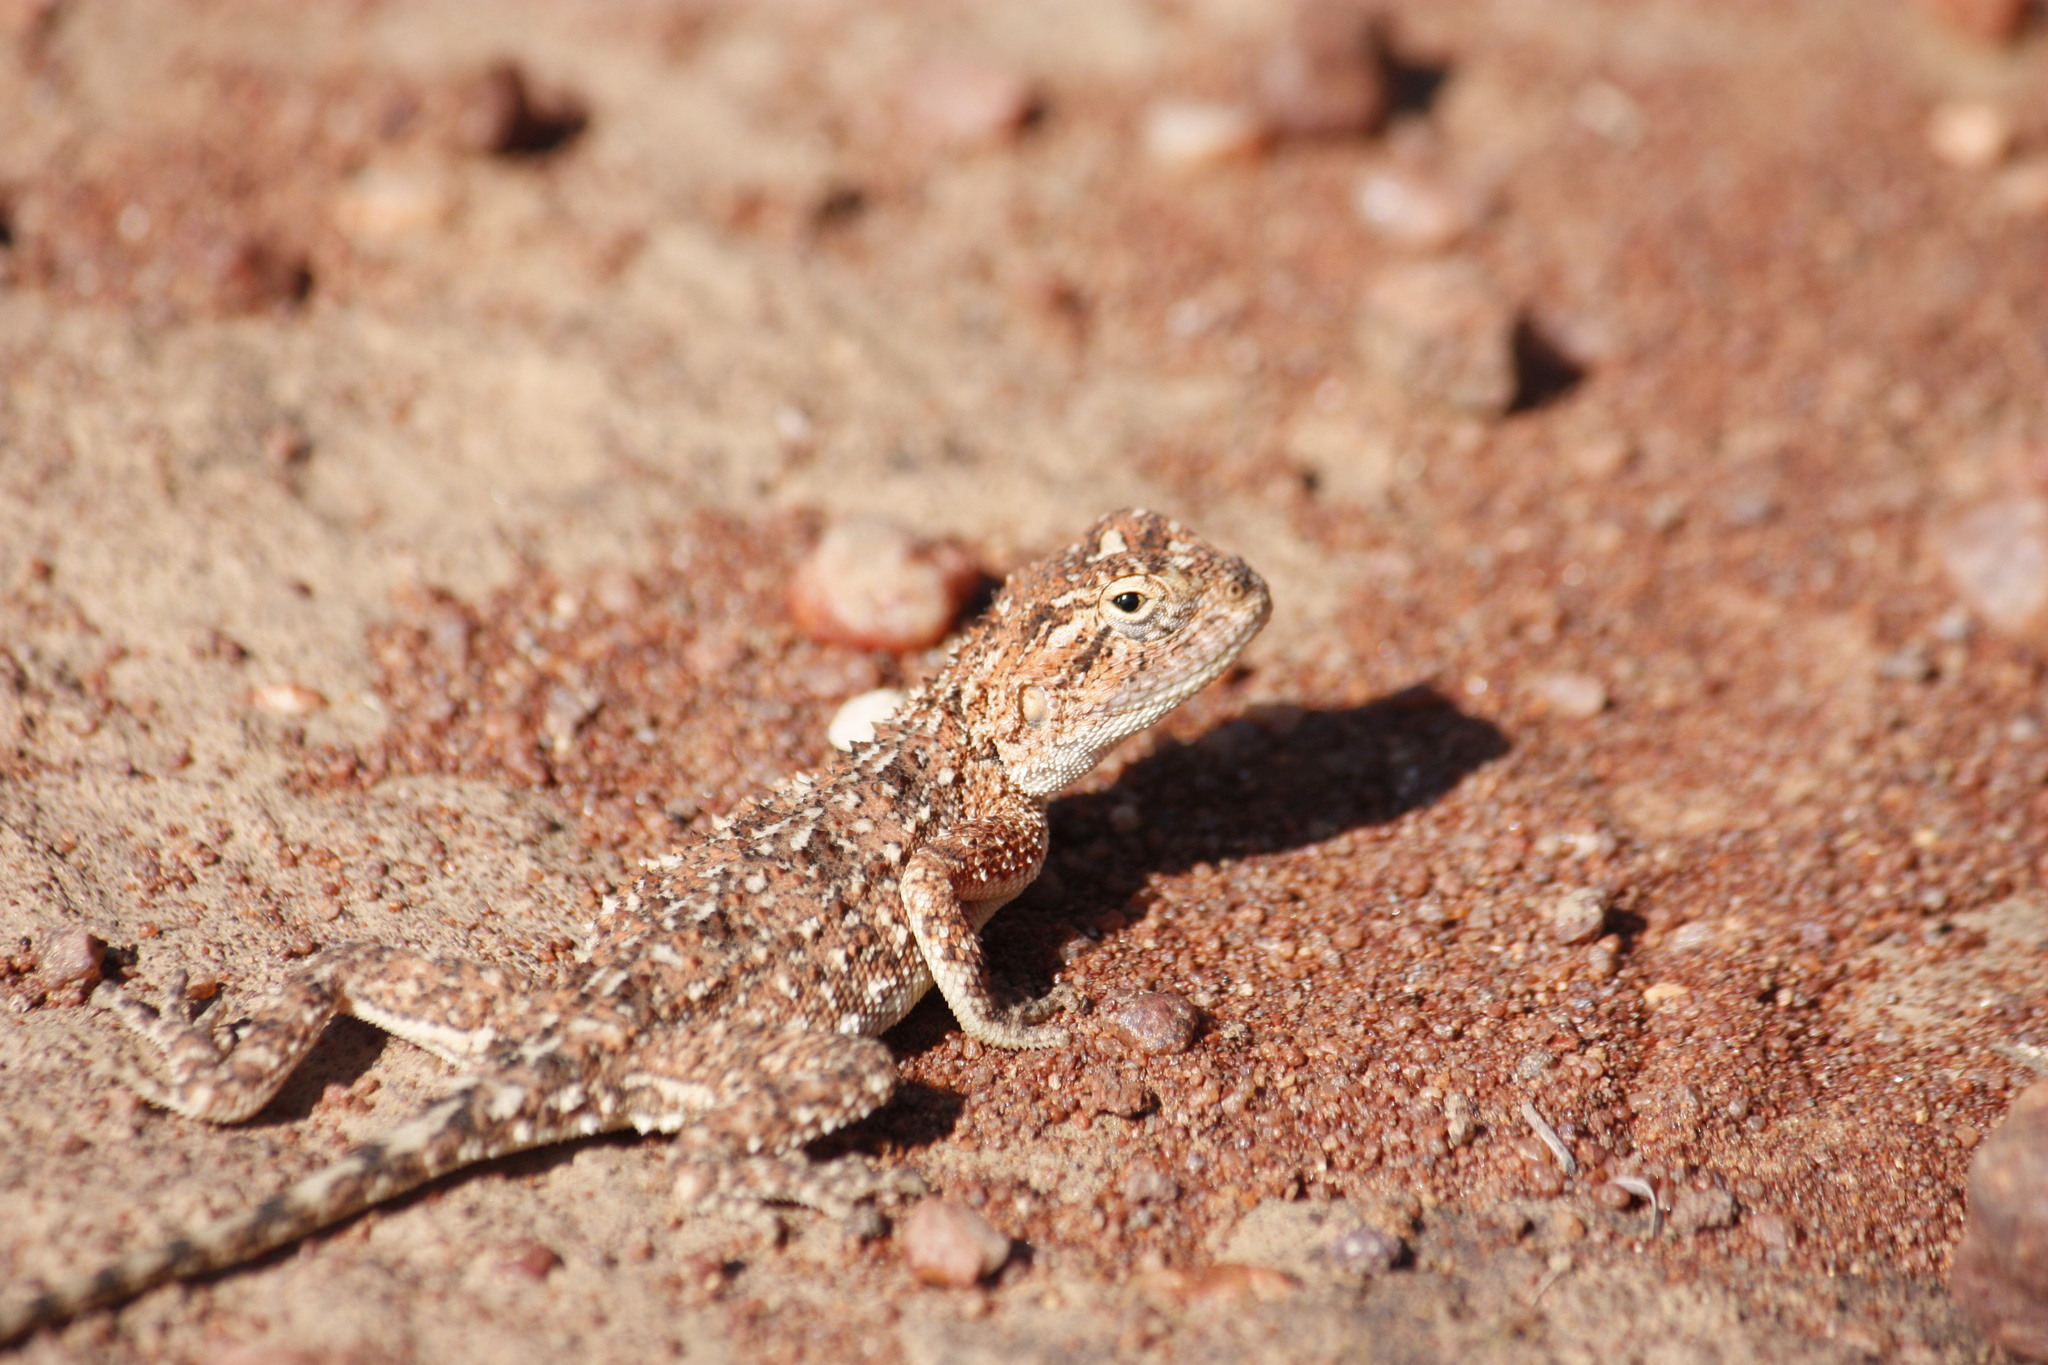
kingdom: Animalia
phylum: Chordata
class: Squamata
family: Agamidae
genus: Agama
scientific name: Agama aculeata
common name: Common ground agama
